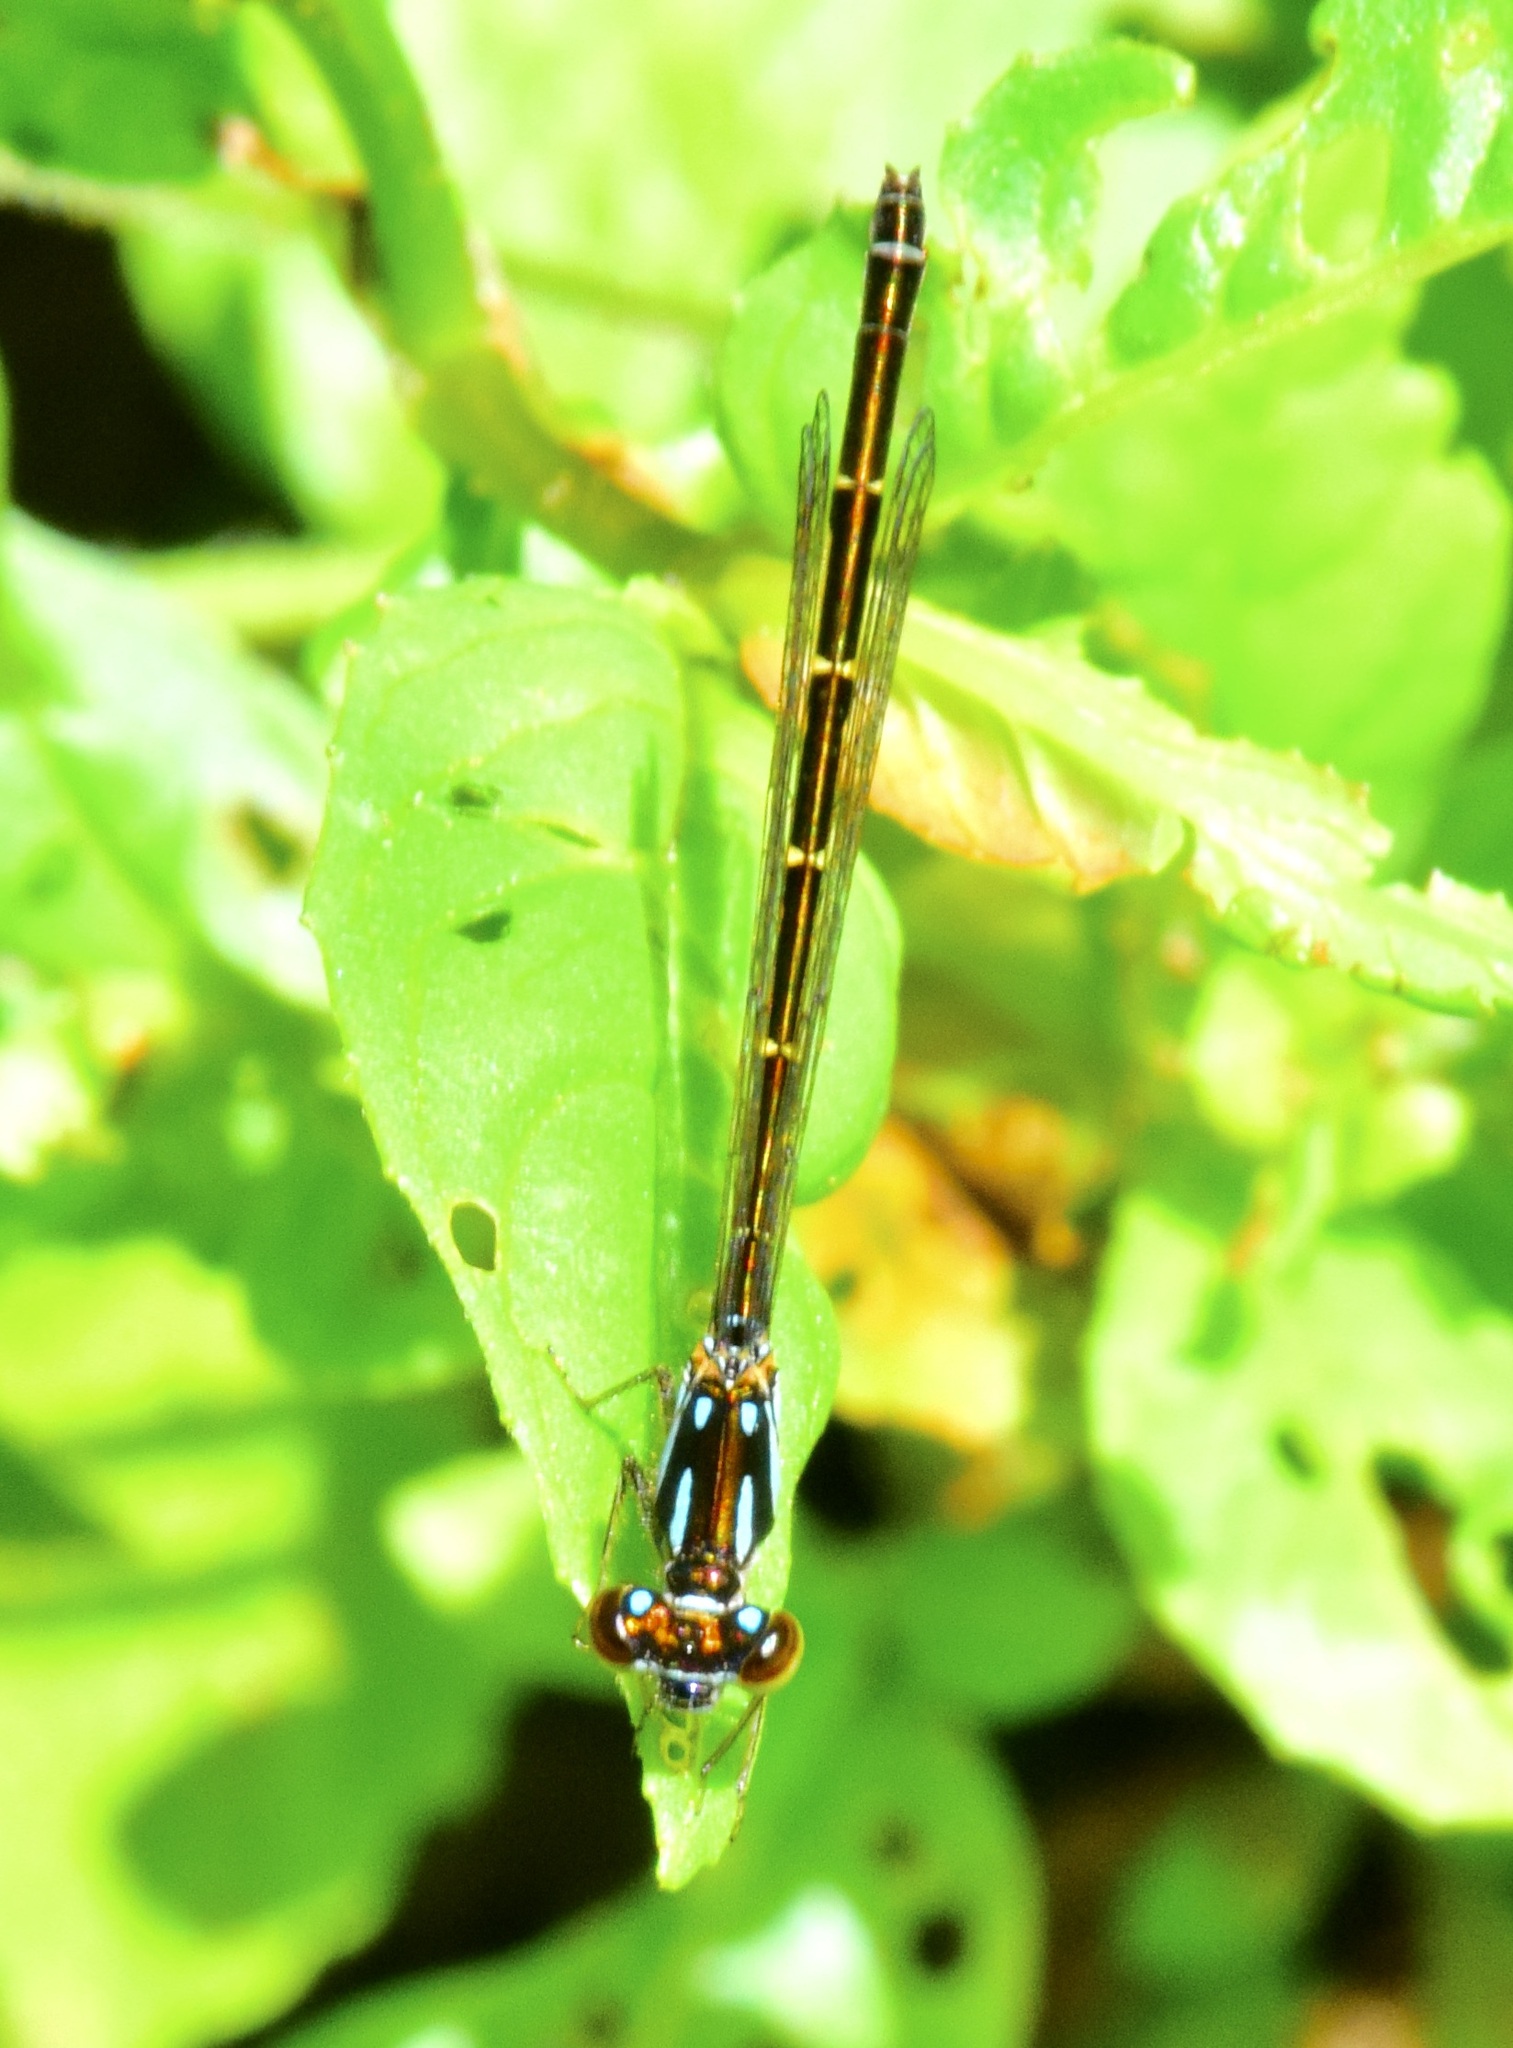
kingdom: Animalia
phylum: Arthropoda
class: Insecta
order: Odonata
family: Coenagrionidae
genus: Ischnura
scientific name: Ischnura posita
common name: Fragile forktail
